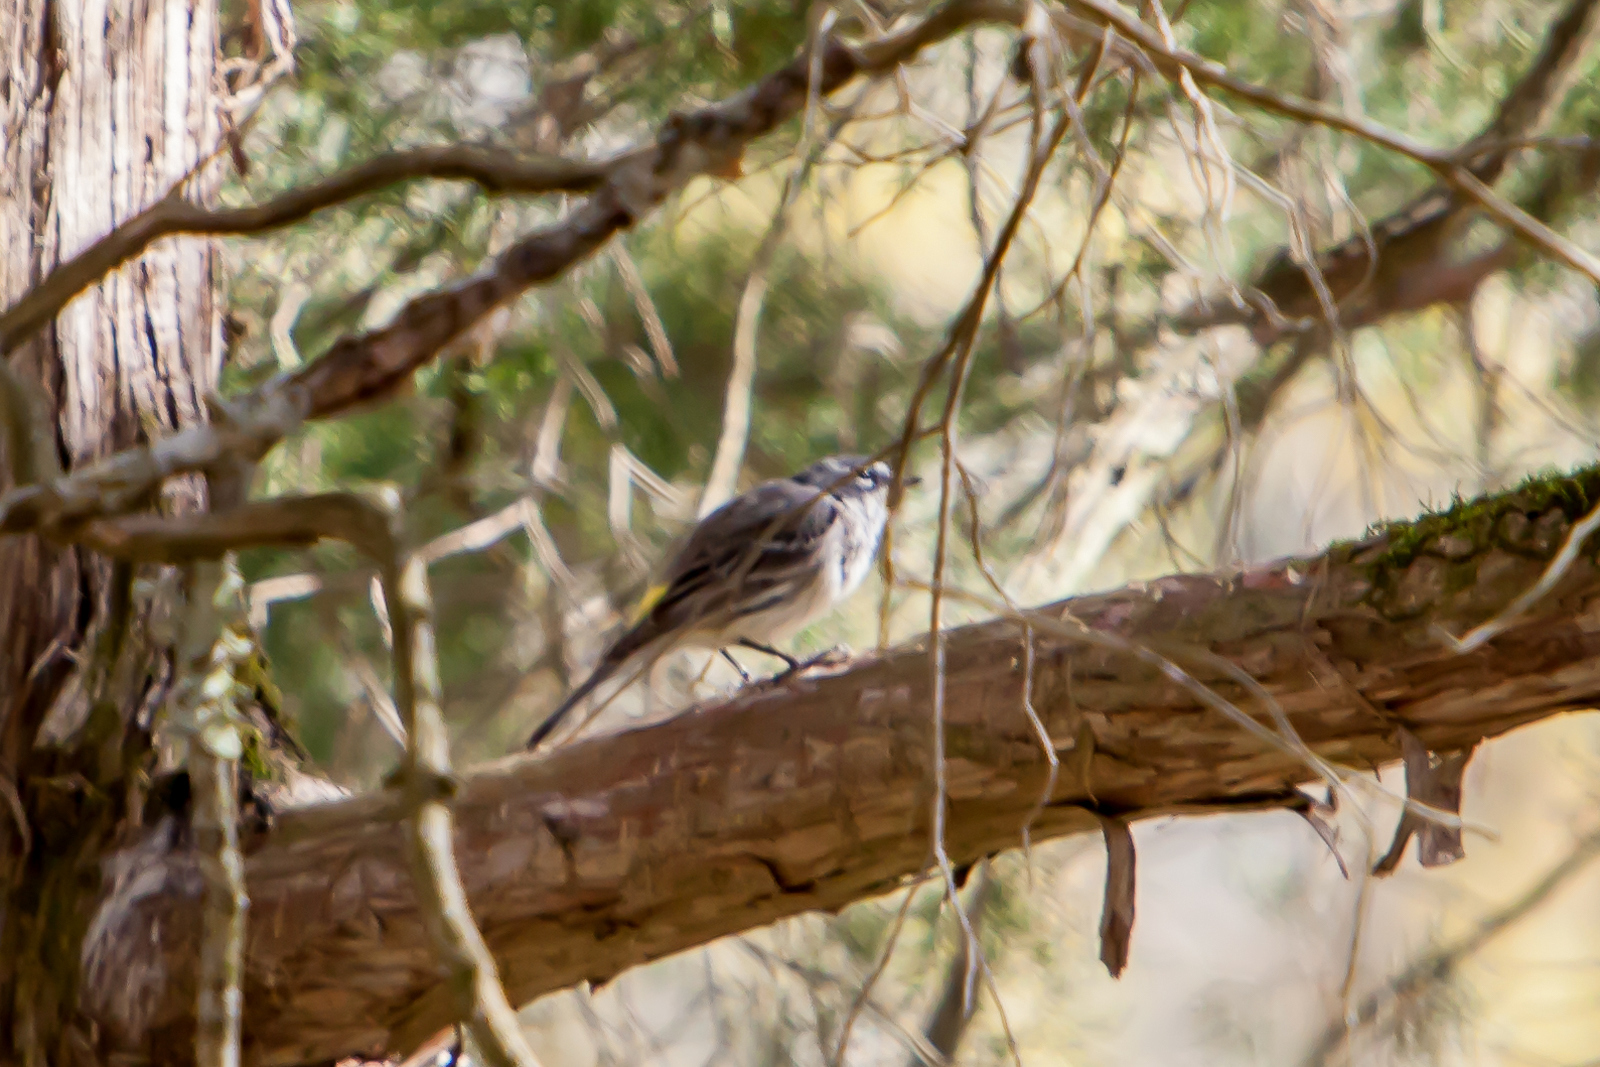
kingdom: Animalia
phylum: Chordata
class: Aves
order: Passeriformes
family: Parulidae
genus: Setophaga
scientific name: Setophaga coronata
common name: Myrtle warbler
